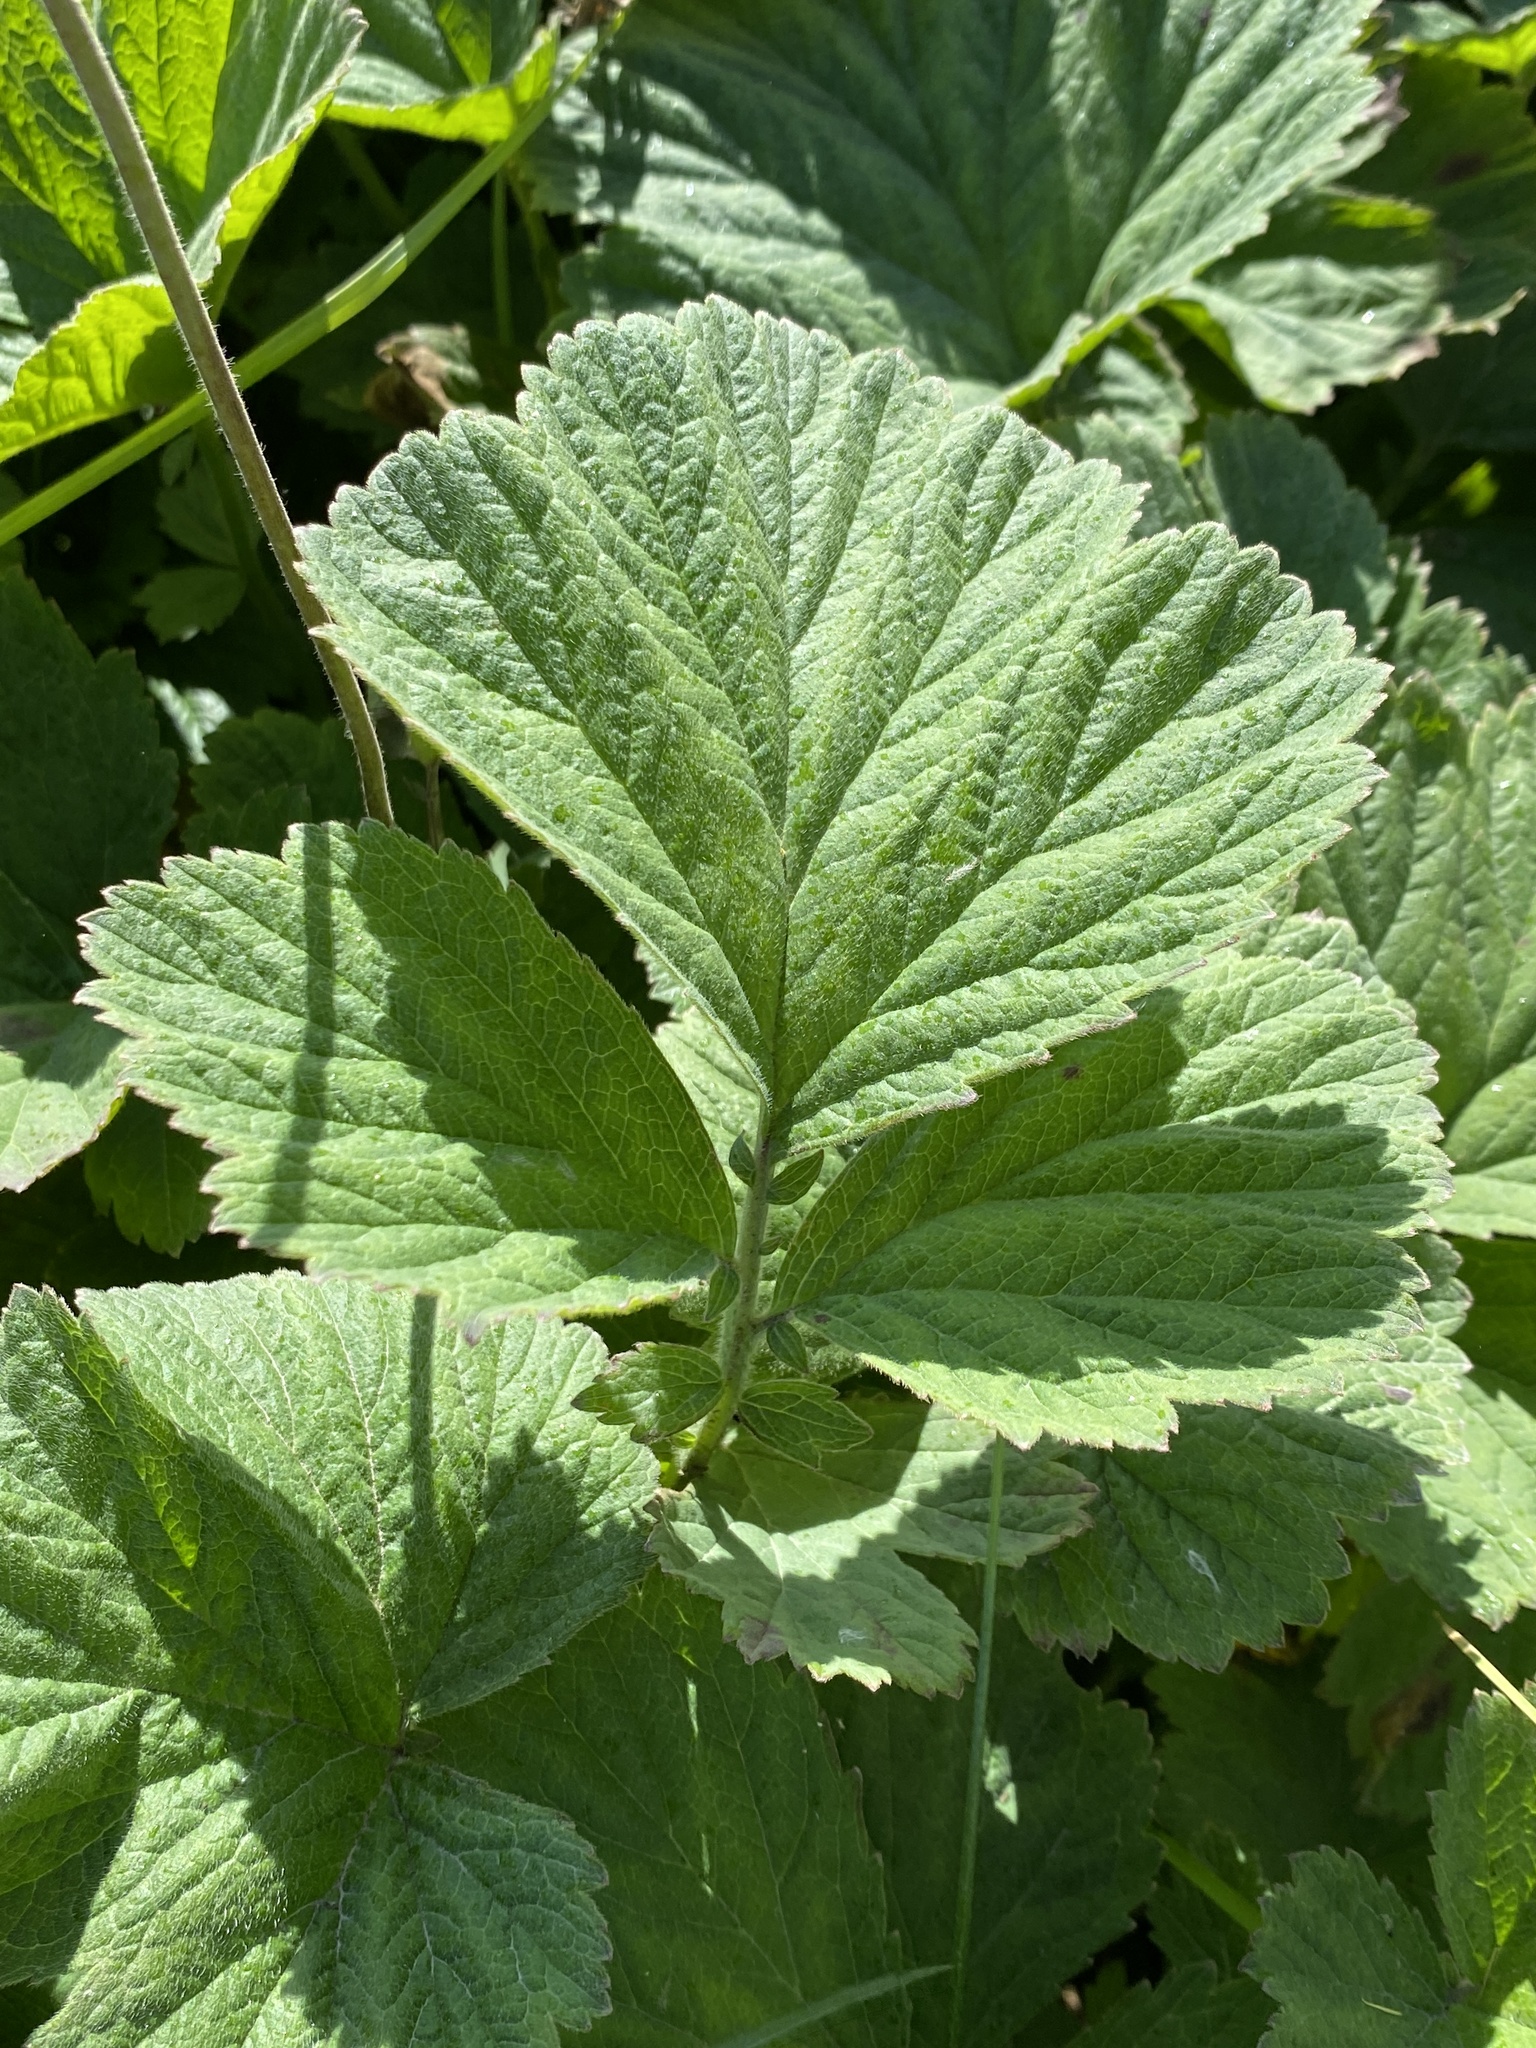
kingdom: Plantae
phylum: Tracheophyta
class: Magnoliopsida
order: Rosales
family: Rosaceae
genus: Geum
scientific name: Geum rivale
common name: Water avens
